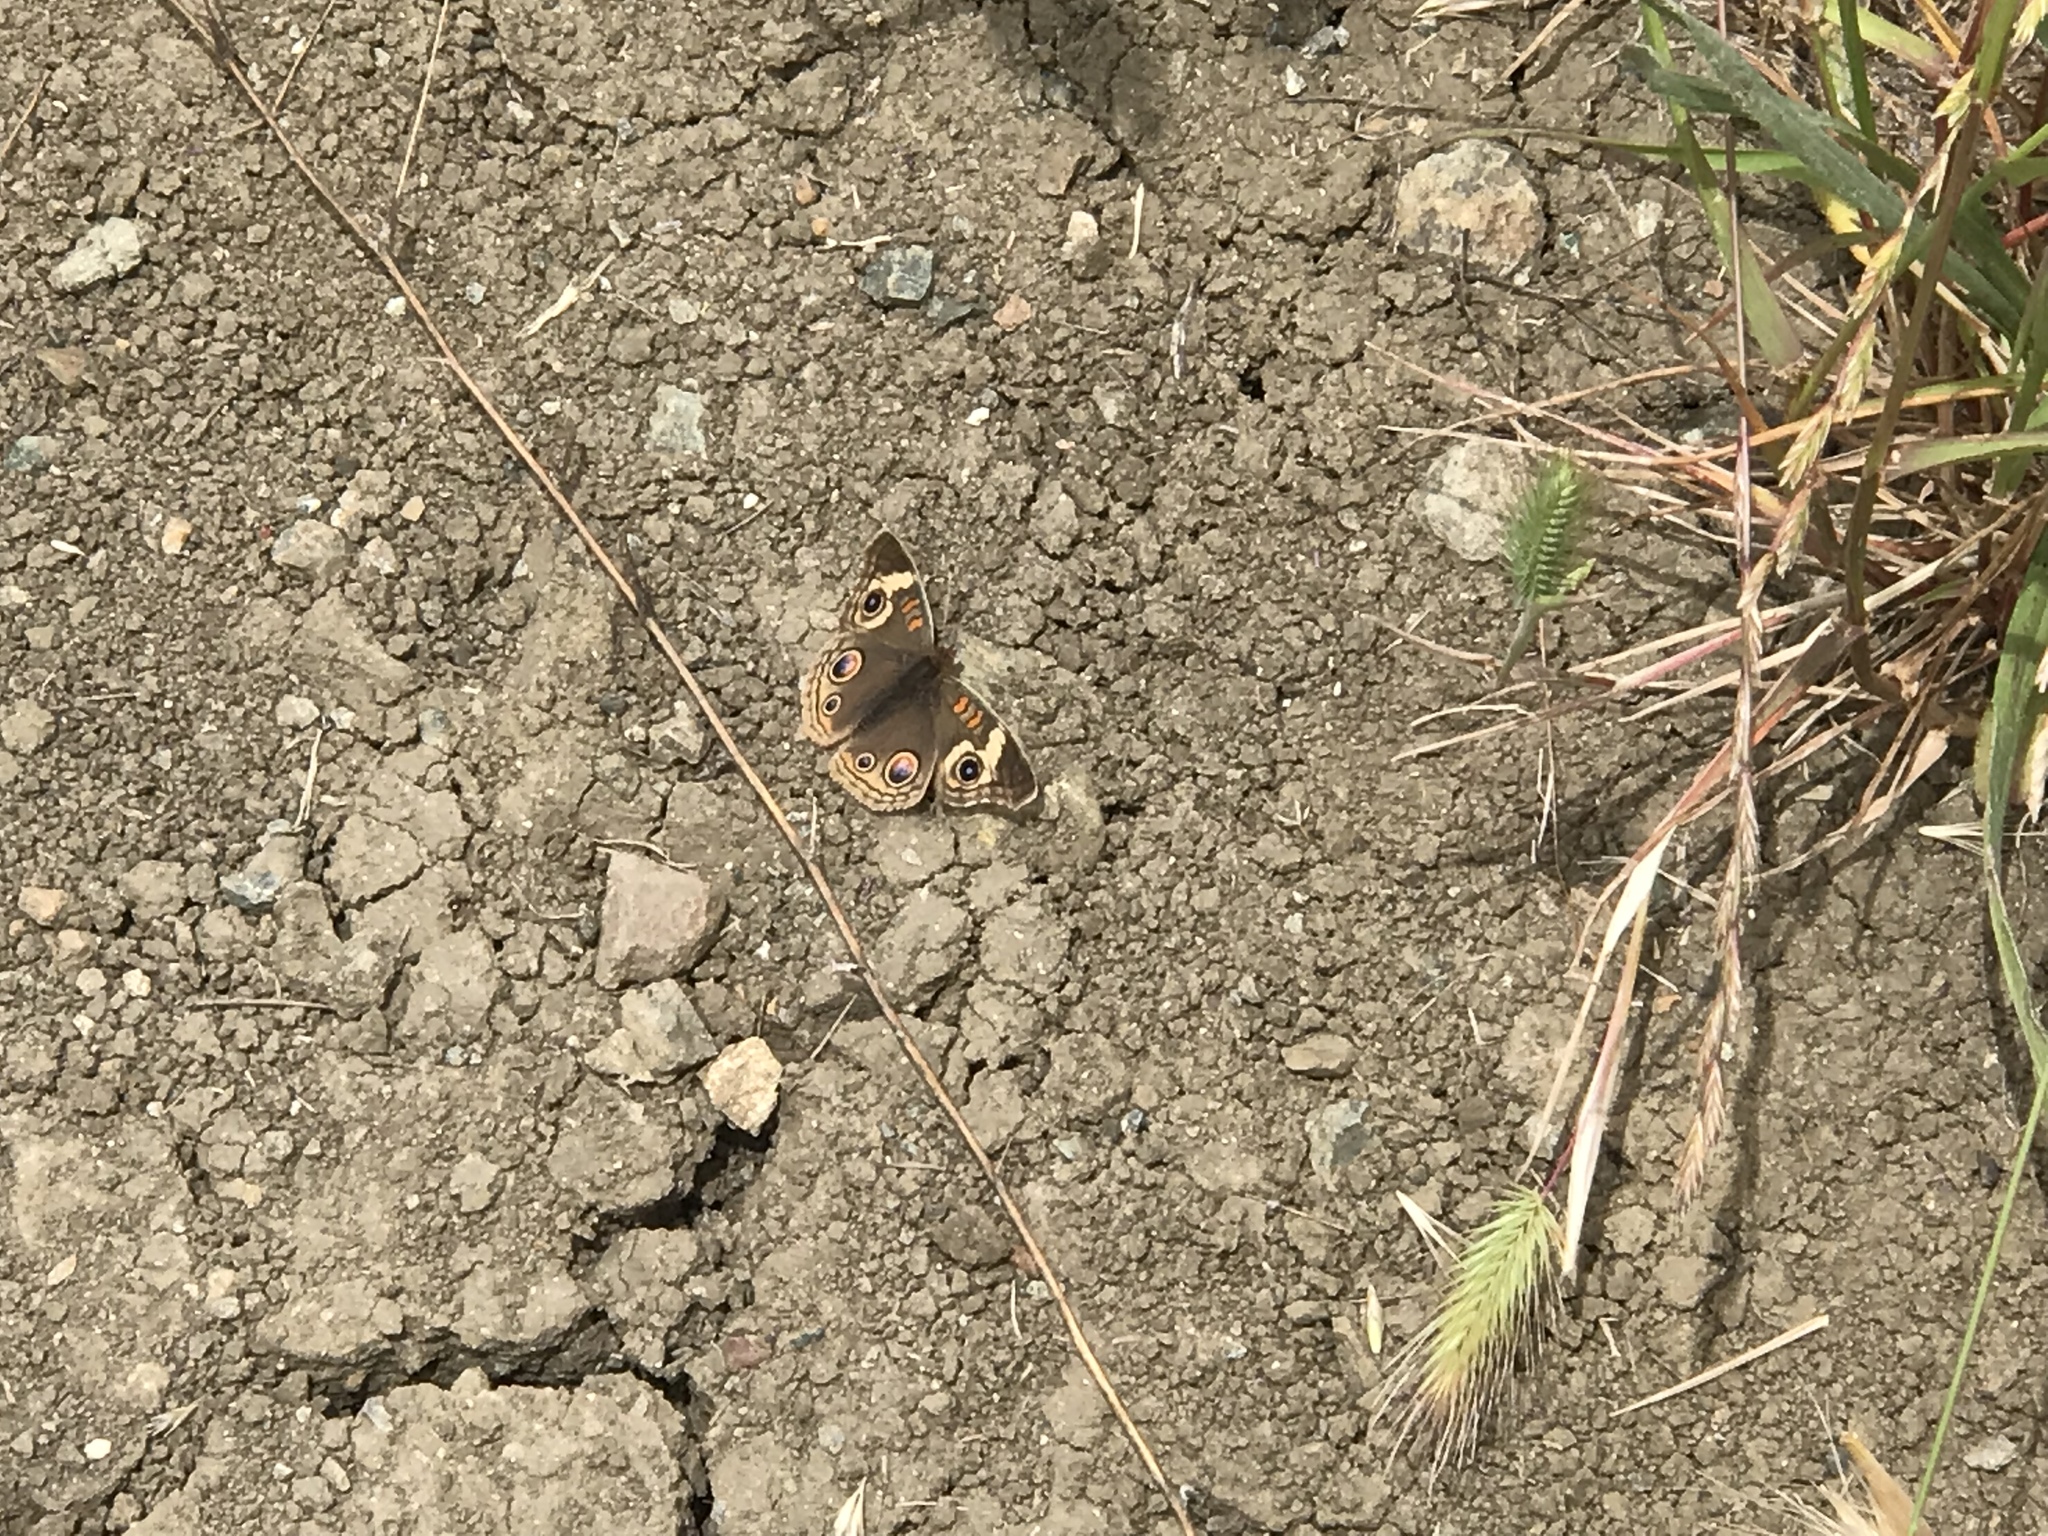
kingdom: Animalia
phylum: Arthropoda
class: Insecta
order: Lepidoptera
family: Nymphalidae
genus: Junonia
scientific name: Junonia grisea
